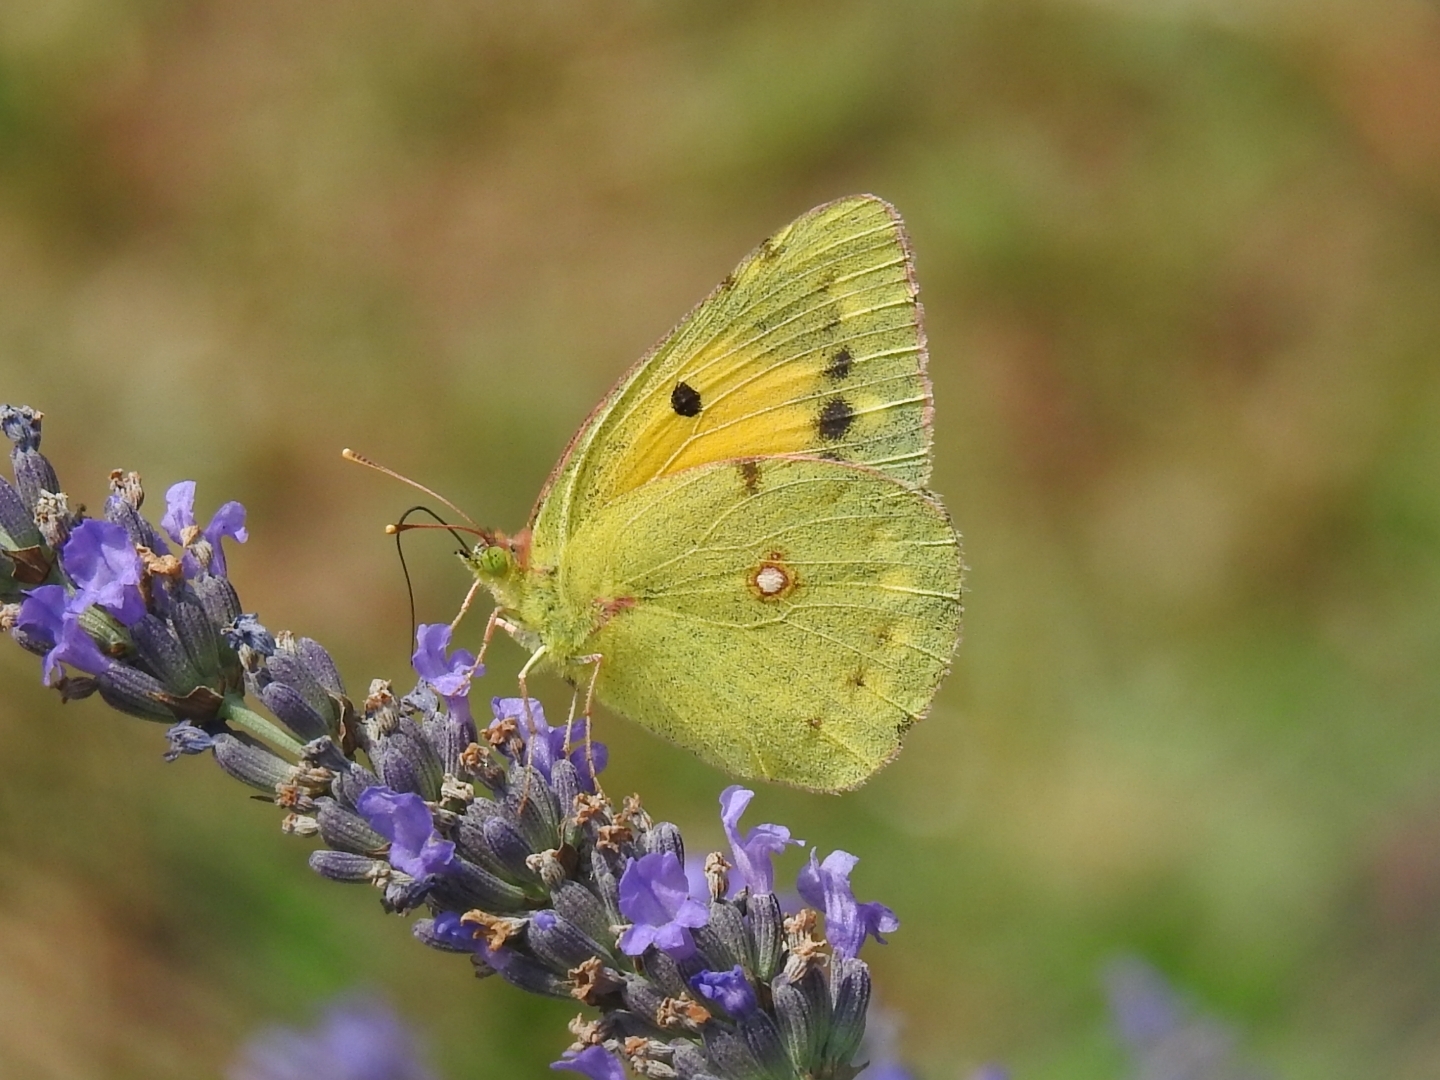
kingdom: Animalia
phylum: Arthropoda
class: Insecta
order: Lepidoptera
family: Pieridae
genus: Colias
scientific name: Colias croceus
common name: Clouded yellow
